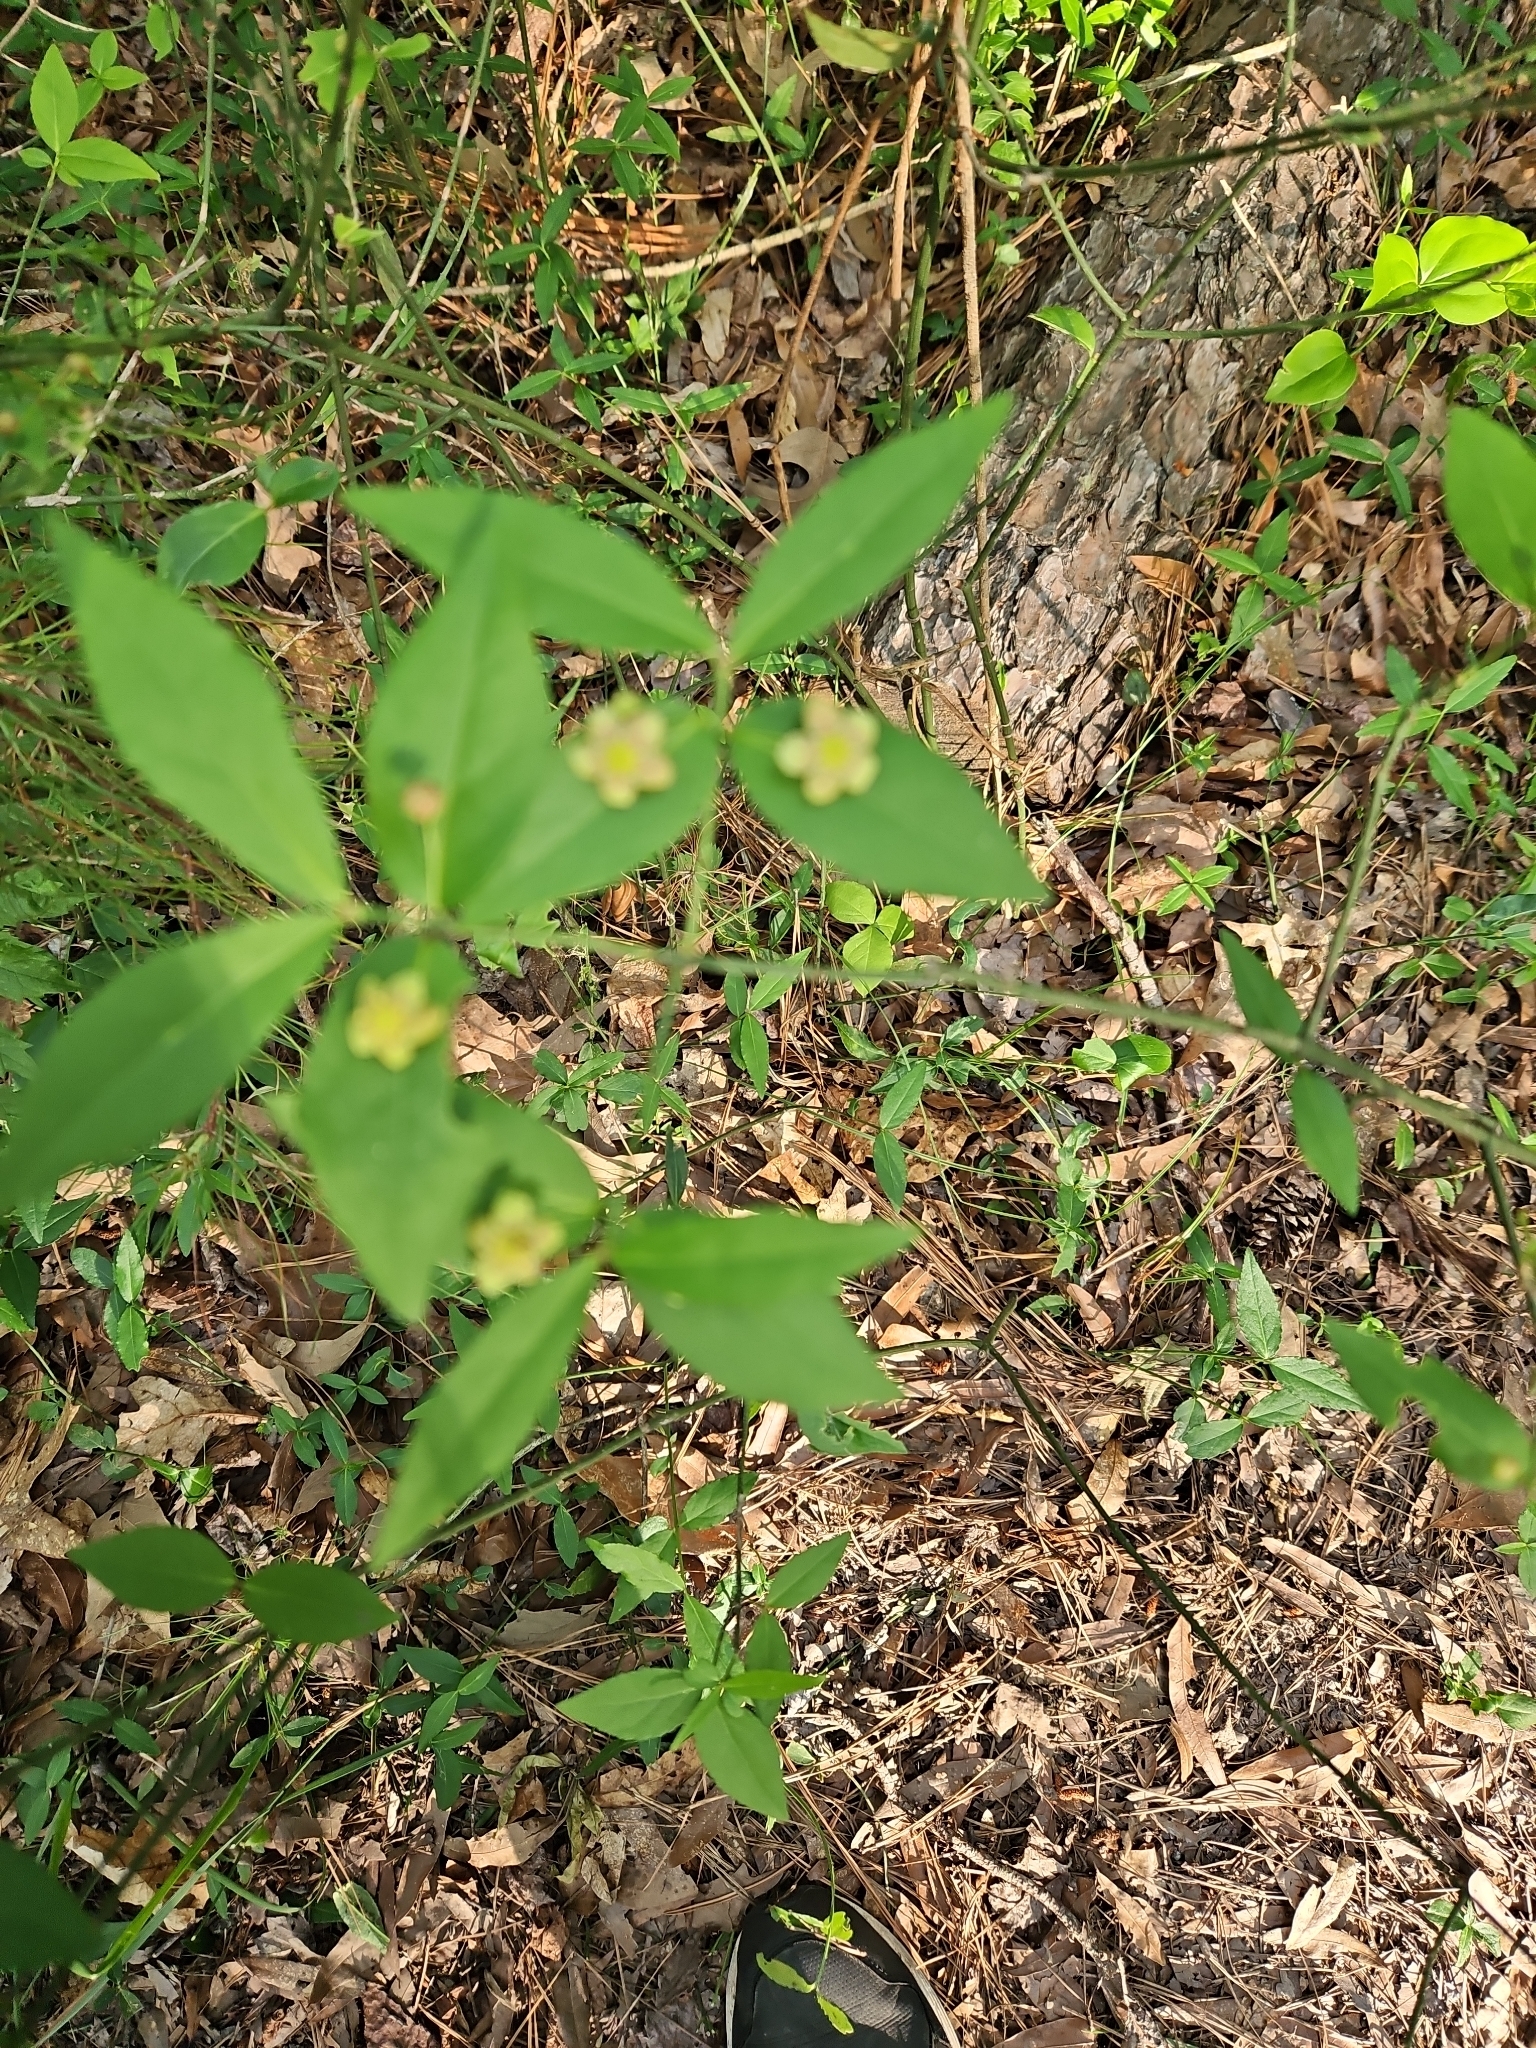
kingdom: Plantae
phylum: Tracheophyta
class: Magnoliopsida
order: Celastrales
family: Celastraceae
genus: Euonymus
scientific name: Euonymus americanus
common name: Bursting-heart
